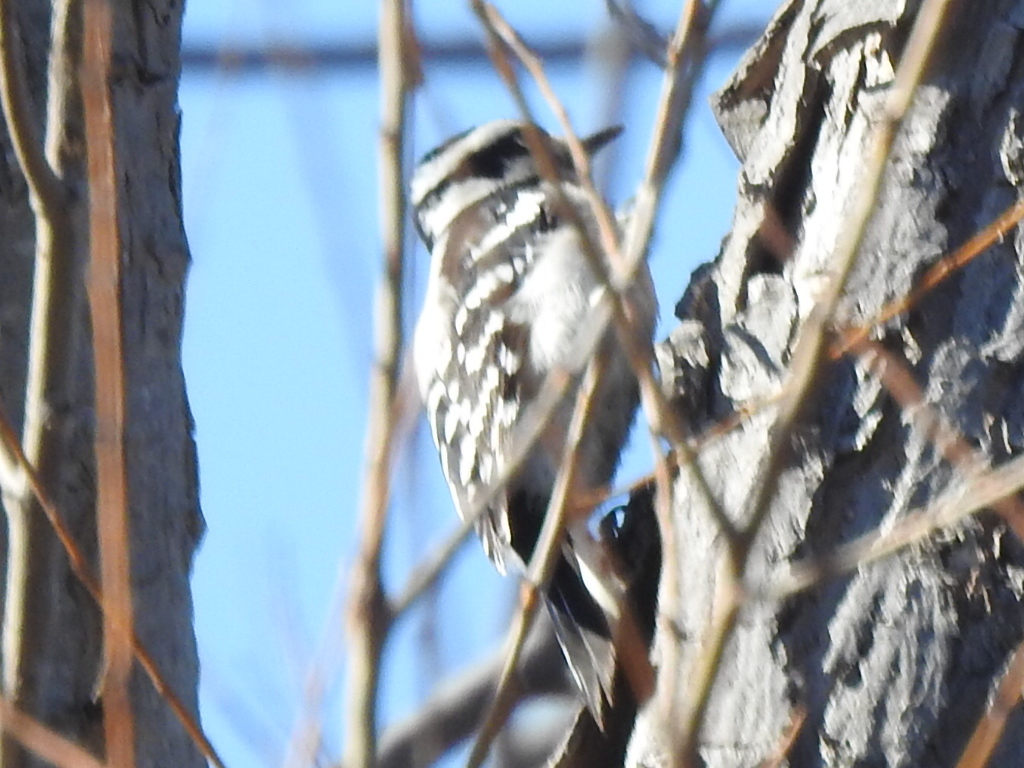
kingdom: Animalia
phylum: Chordata
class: Aves
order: Piciformes
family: Picidae
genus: Dryobates
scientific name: Dryobates pubescens
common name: Downy woodpecker
